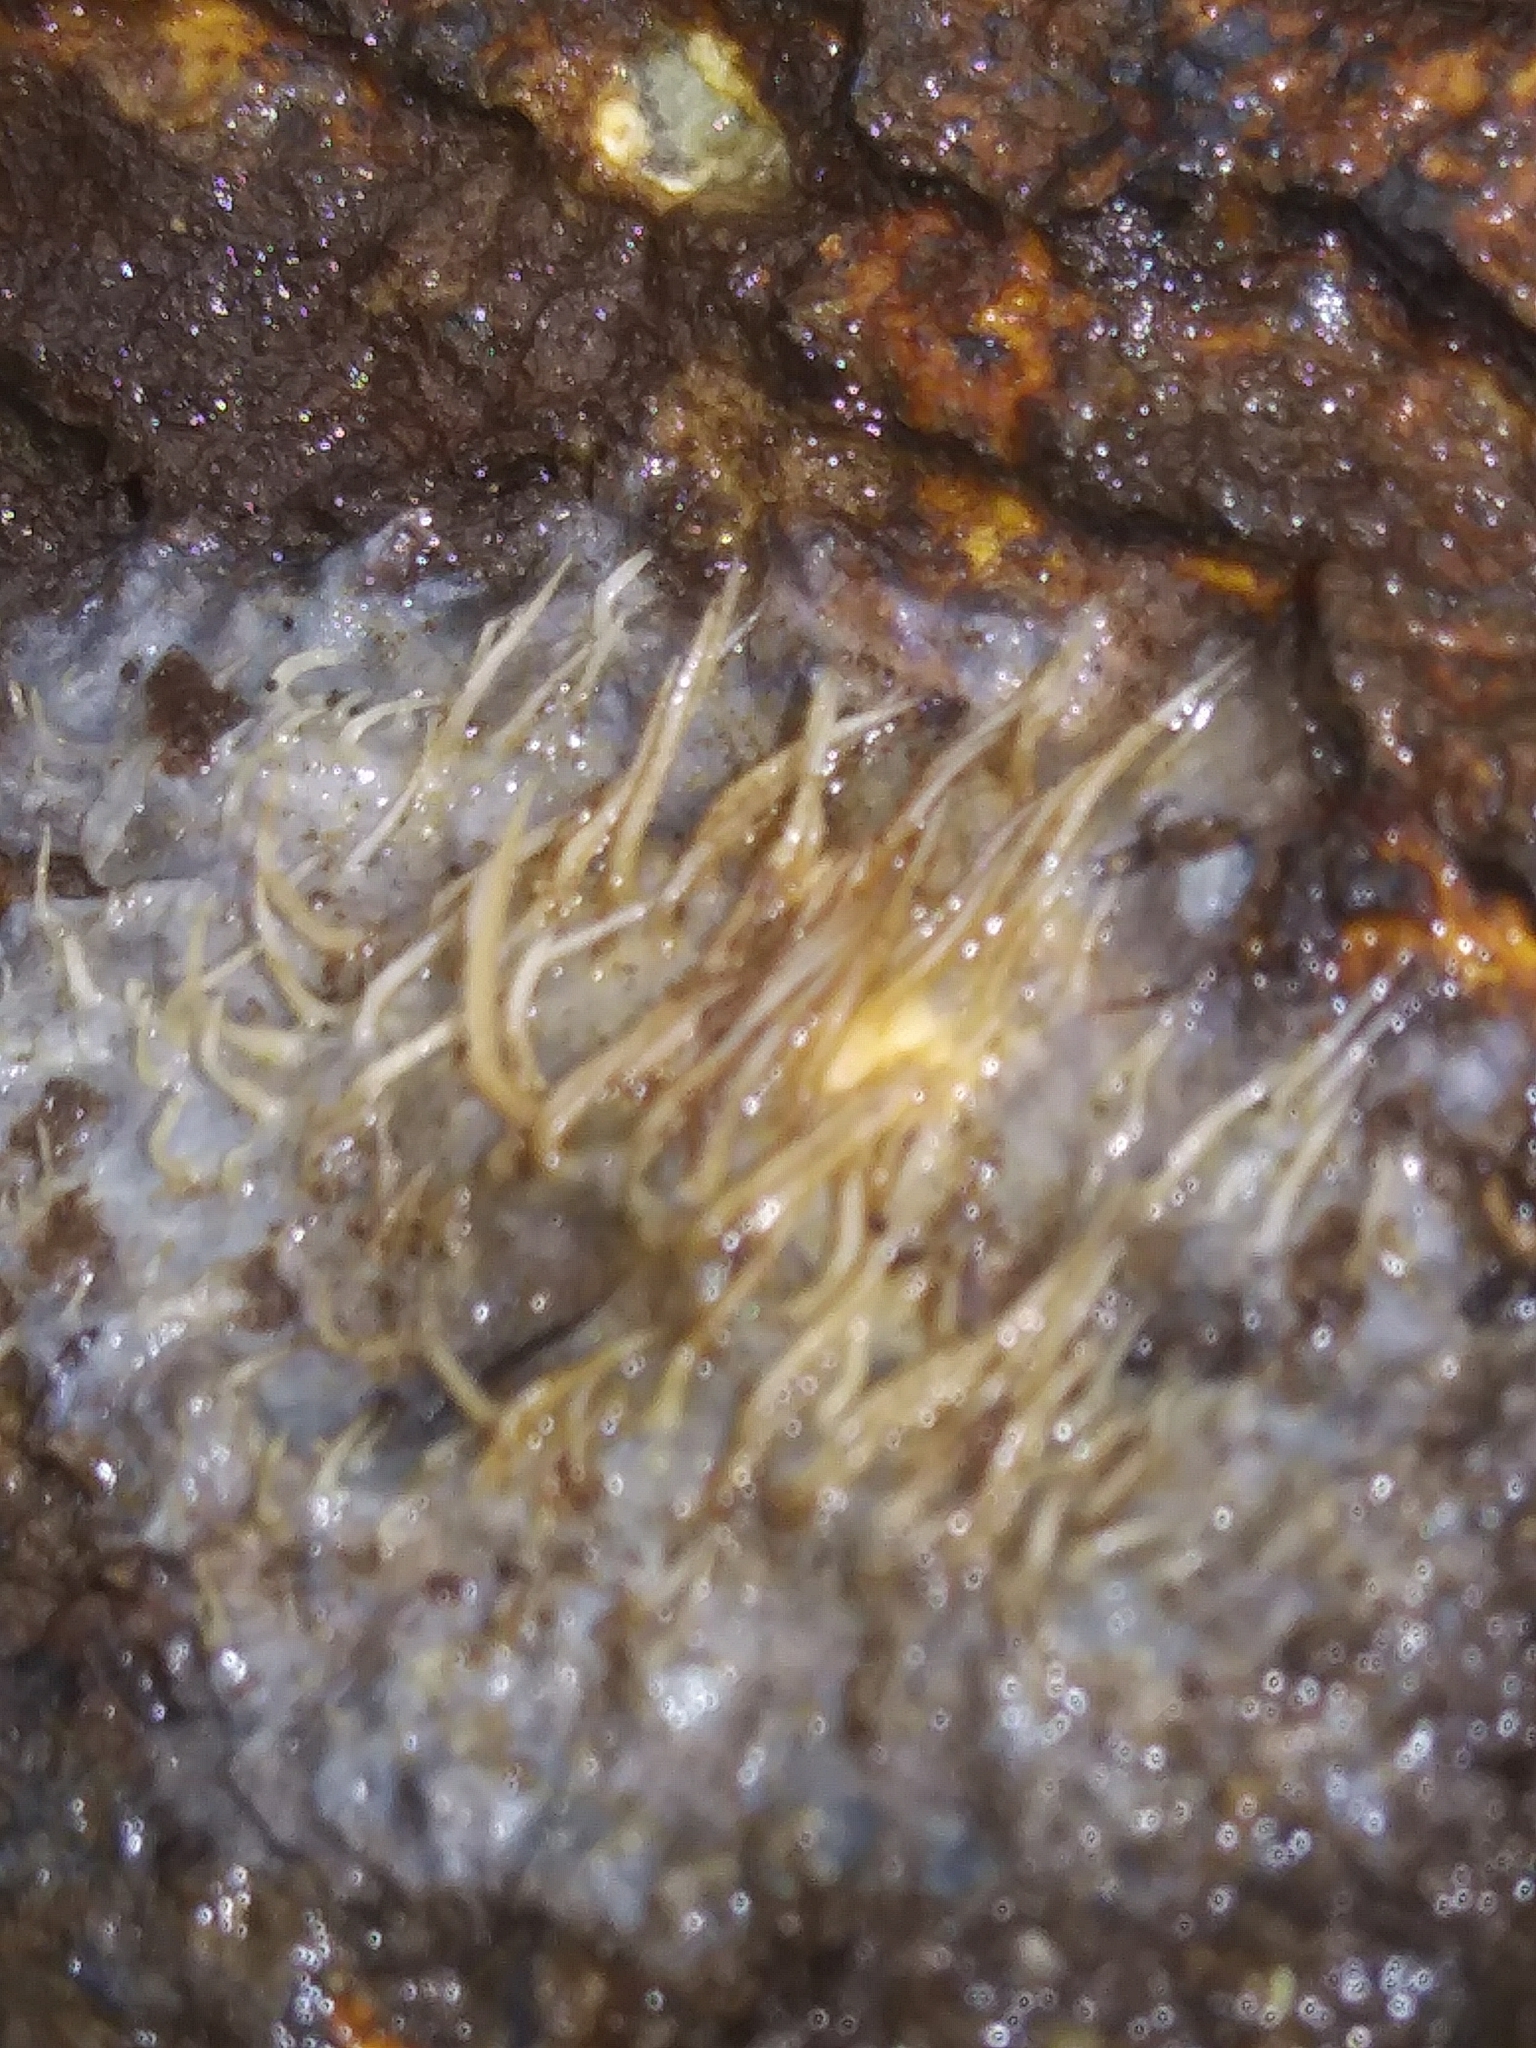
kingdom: Fungi
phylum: Basidiomycota
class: Agaricomycetes
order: Agaricales
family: Radulomycetaceae
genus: Radulomyces
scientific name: Radulomyces copelandii
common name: Asian beauty
